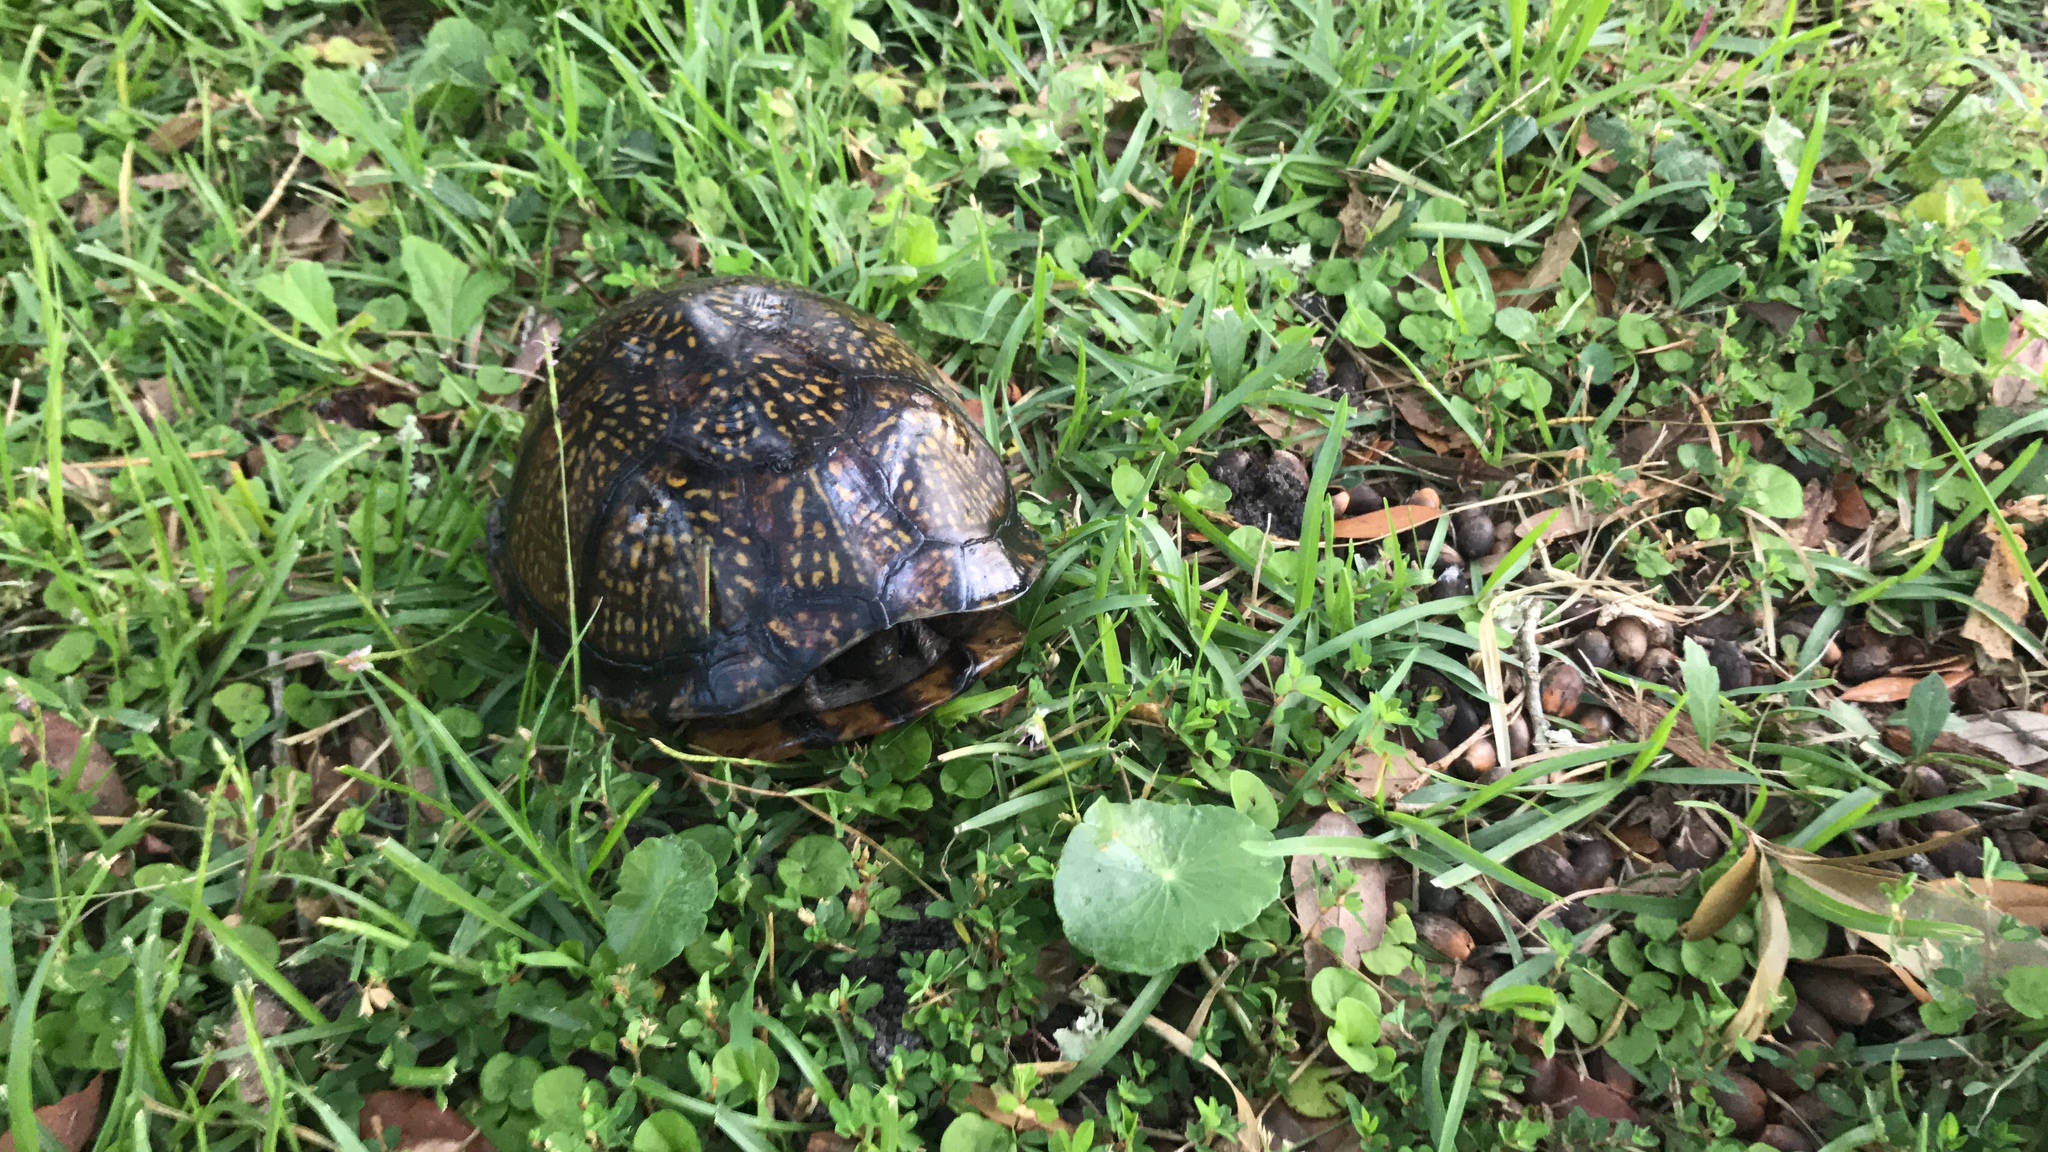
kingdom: Animalia
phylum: Chordata
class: Testudines
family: Emydidae
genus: Terrapene
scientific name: Terrapene carolina
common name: Common box turtle
